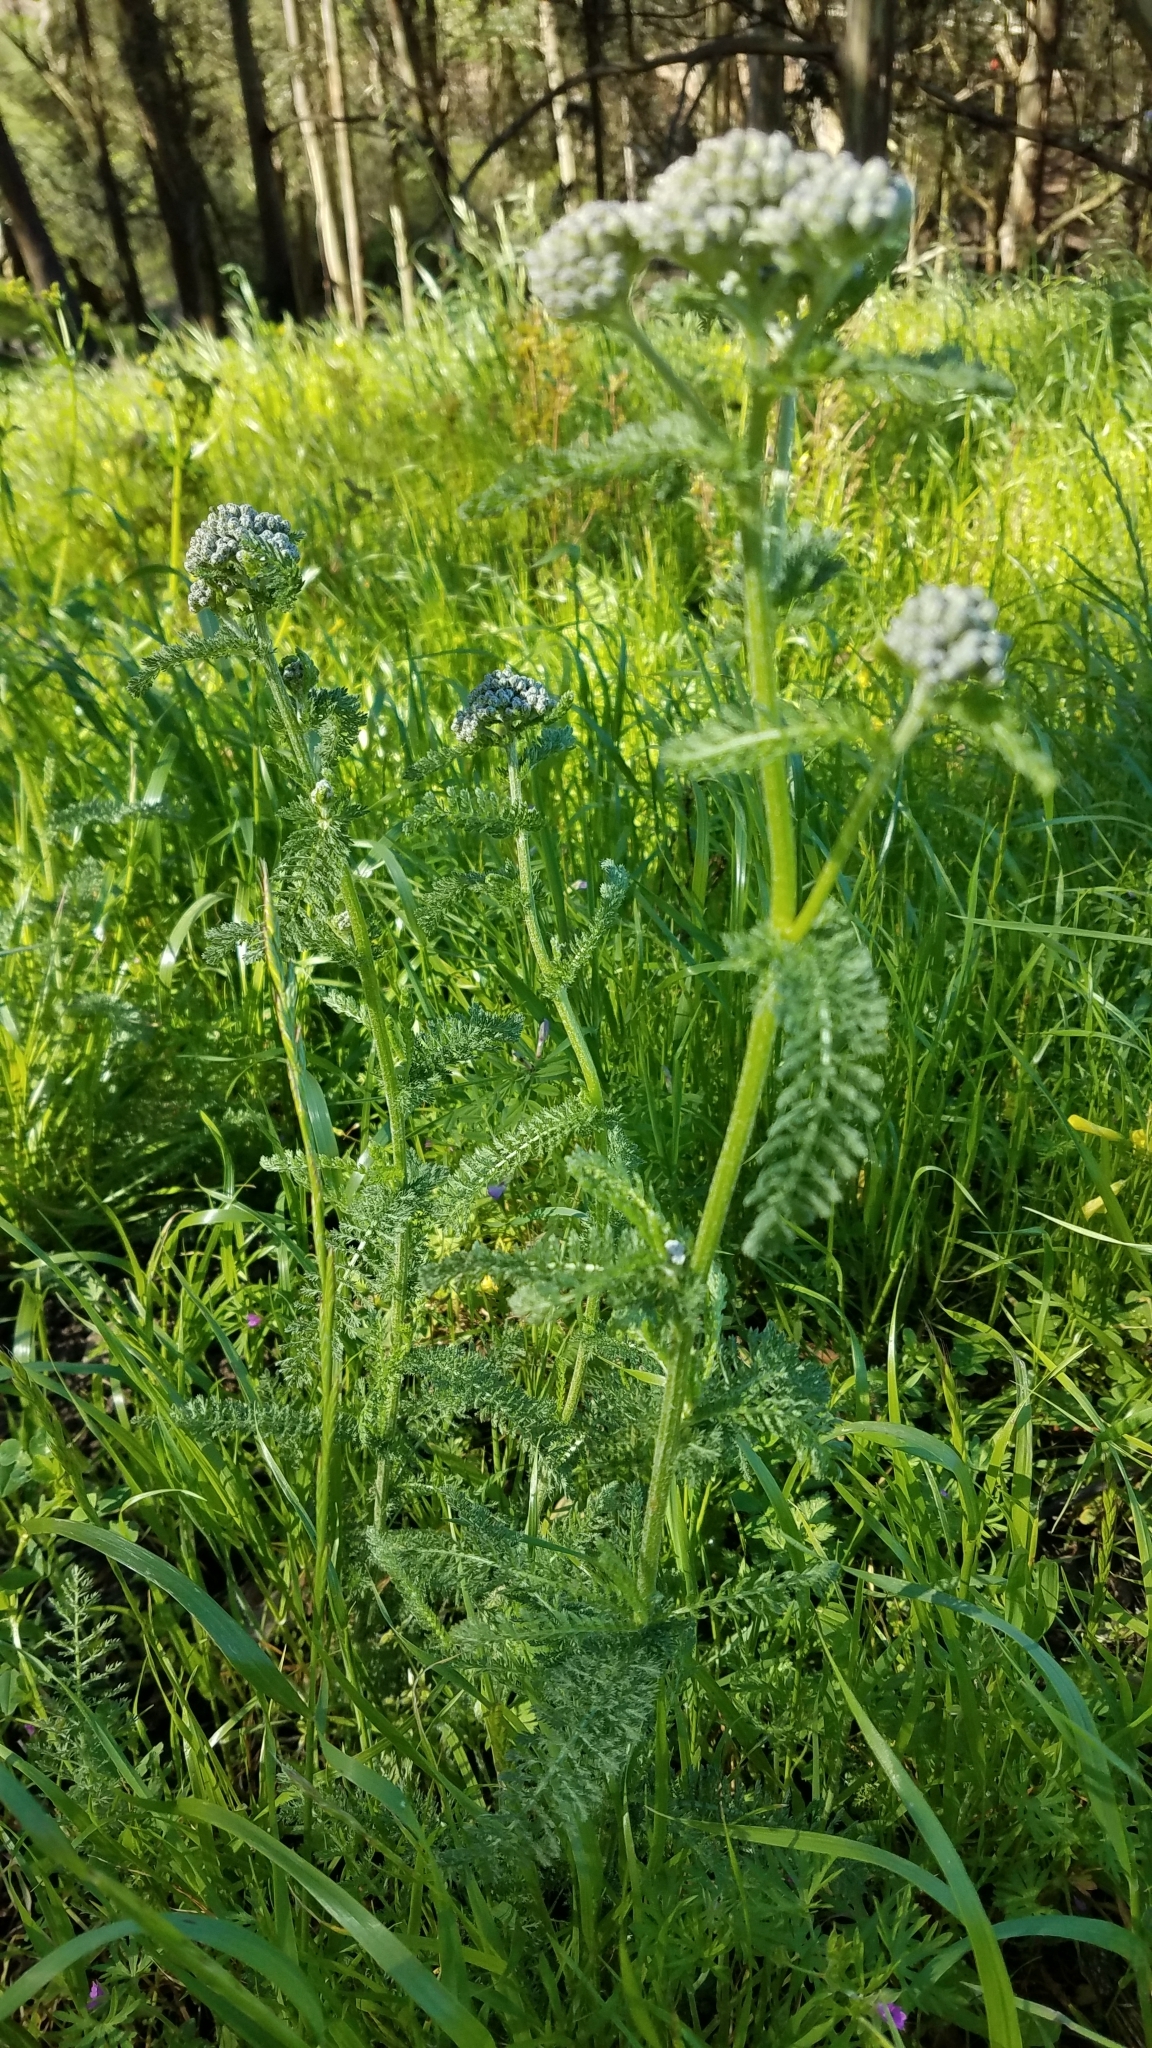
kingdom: Plantae
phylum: Tracheophyta
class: Magnoliopsida
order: Asterales
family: Asteraceae
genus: Achillea
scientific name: Achillea millefolium
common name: Yarrow
